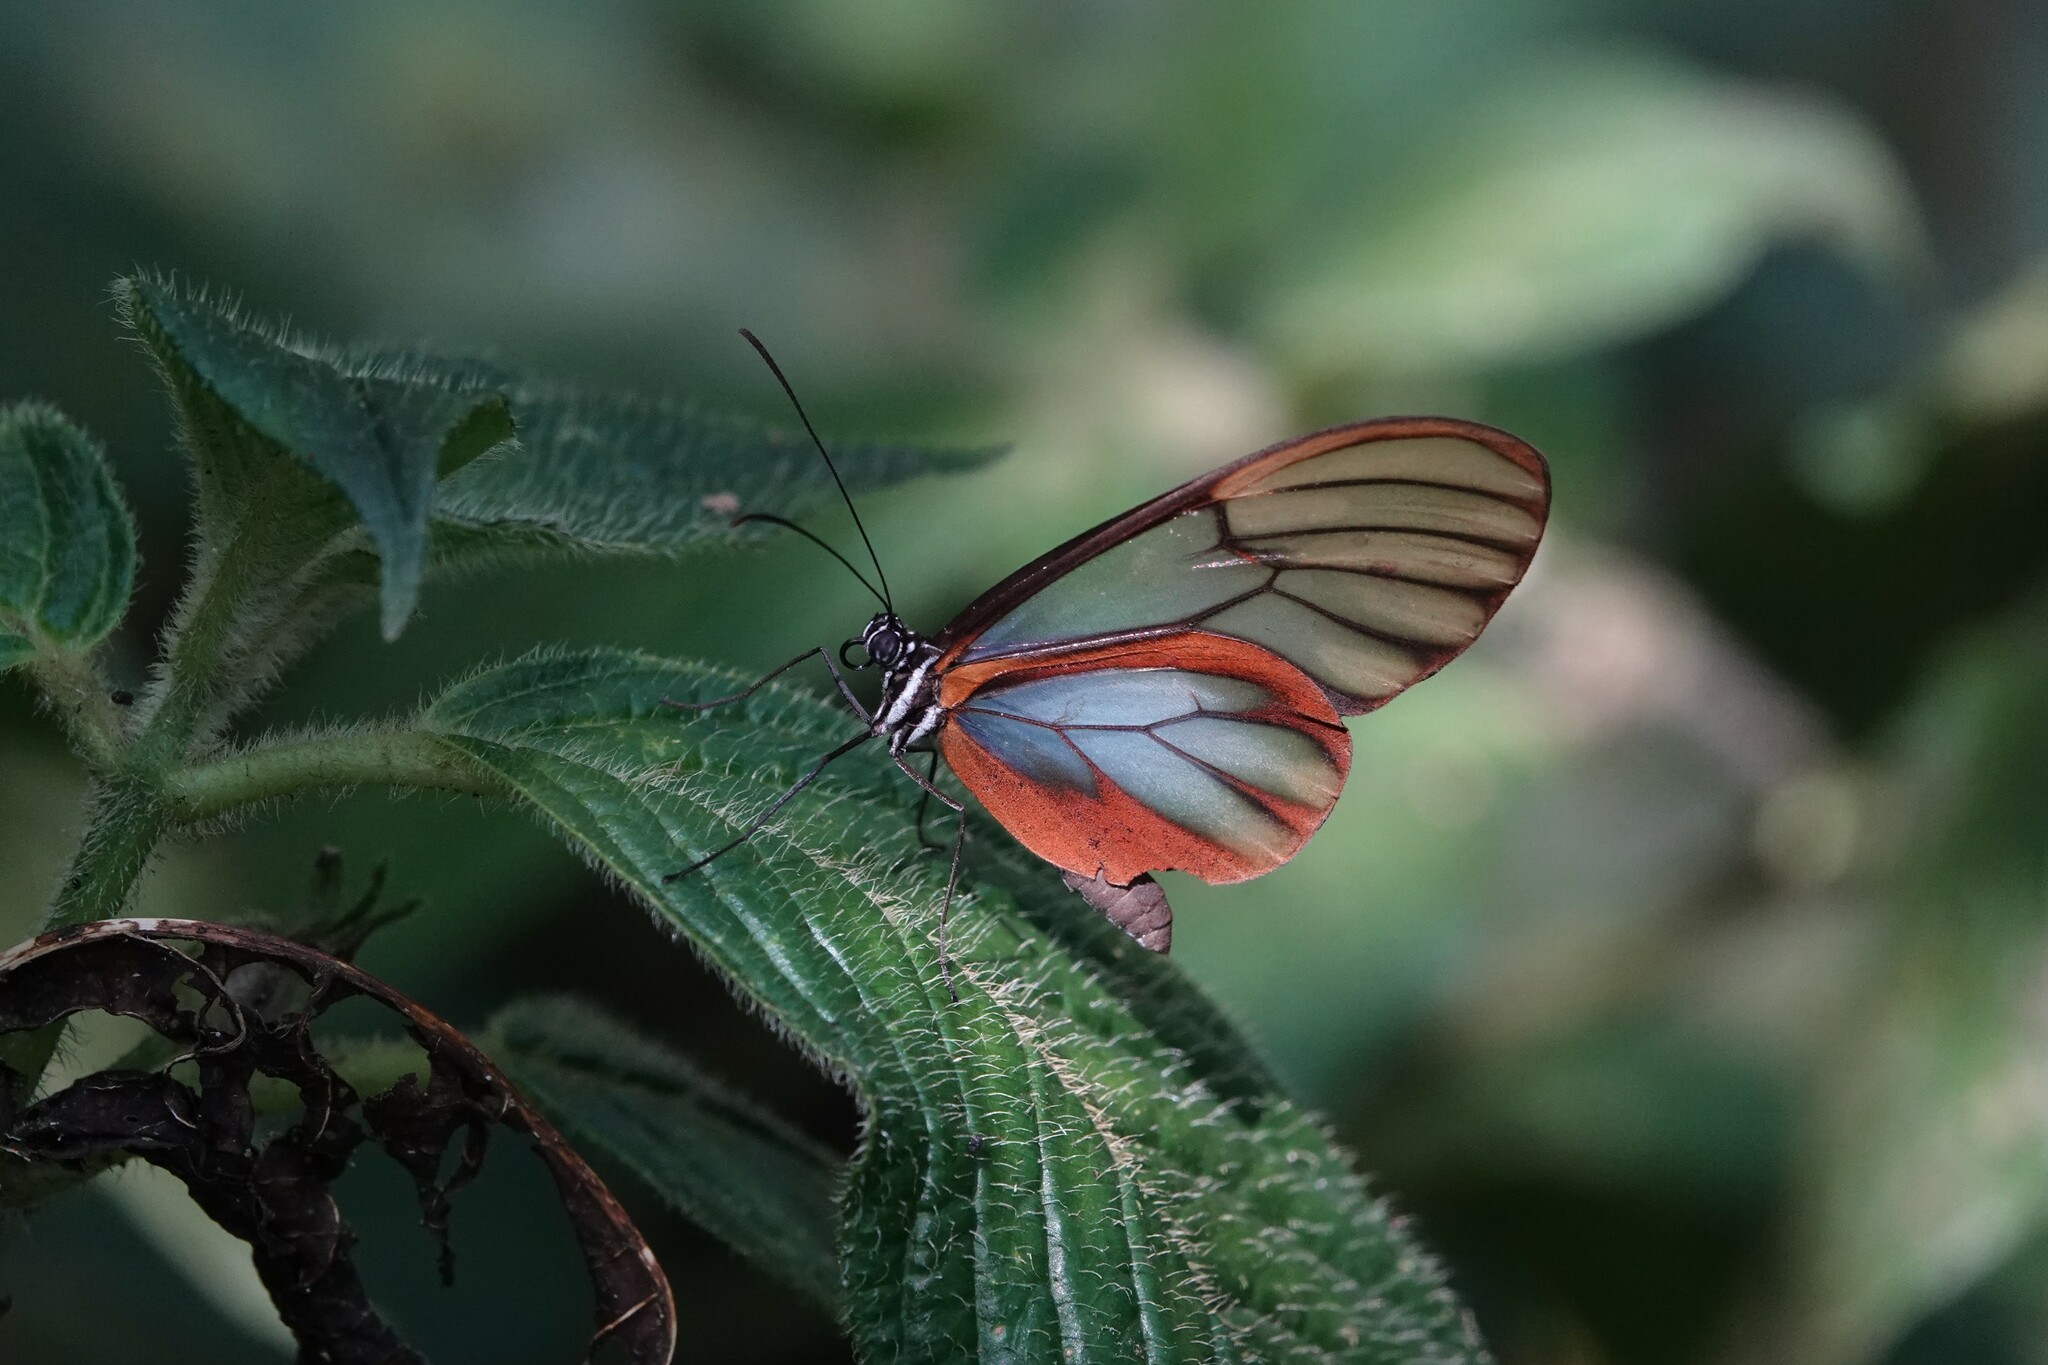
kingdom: Animalia
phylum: Arthropoda
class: Insecta
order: Lepidoptera
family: Nymphalidae
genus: Hypomenitis
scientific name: Hypomenitis
